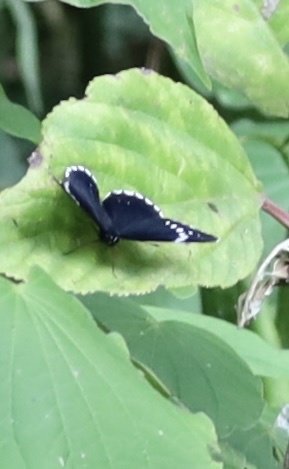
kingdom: Animalia
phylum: Arthropoda
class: Insecta
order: Lepidoptera
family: Nymphalidae
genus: Chlosyne
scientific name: Chlosyne hippodrome
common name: Simple patch
